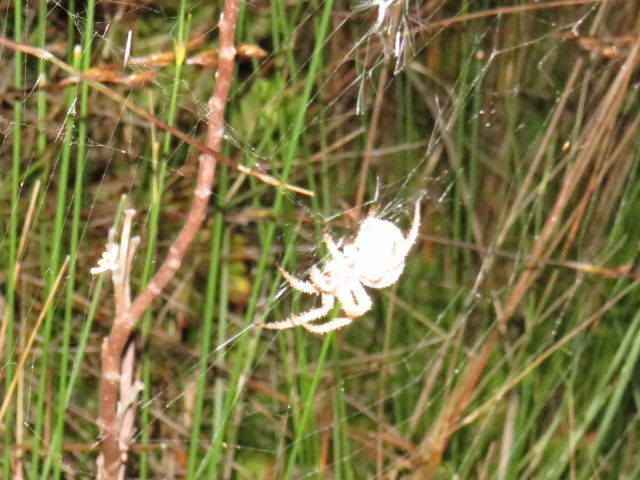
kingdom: Animalia
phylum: Arthropoda
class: Arachnida
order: Araneae
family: Araneidae
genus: Pararaneus
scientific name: Pararaneus cyrtoscapus
